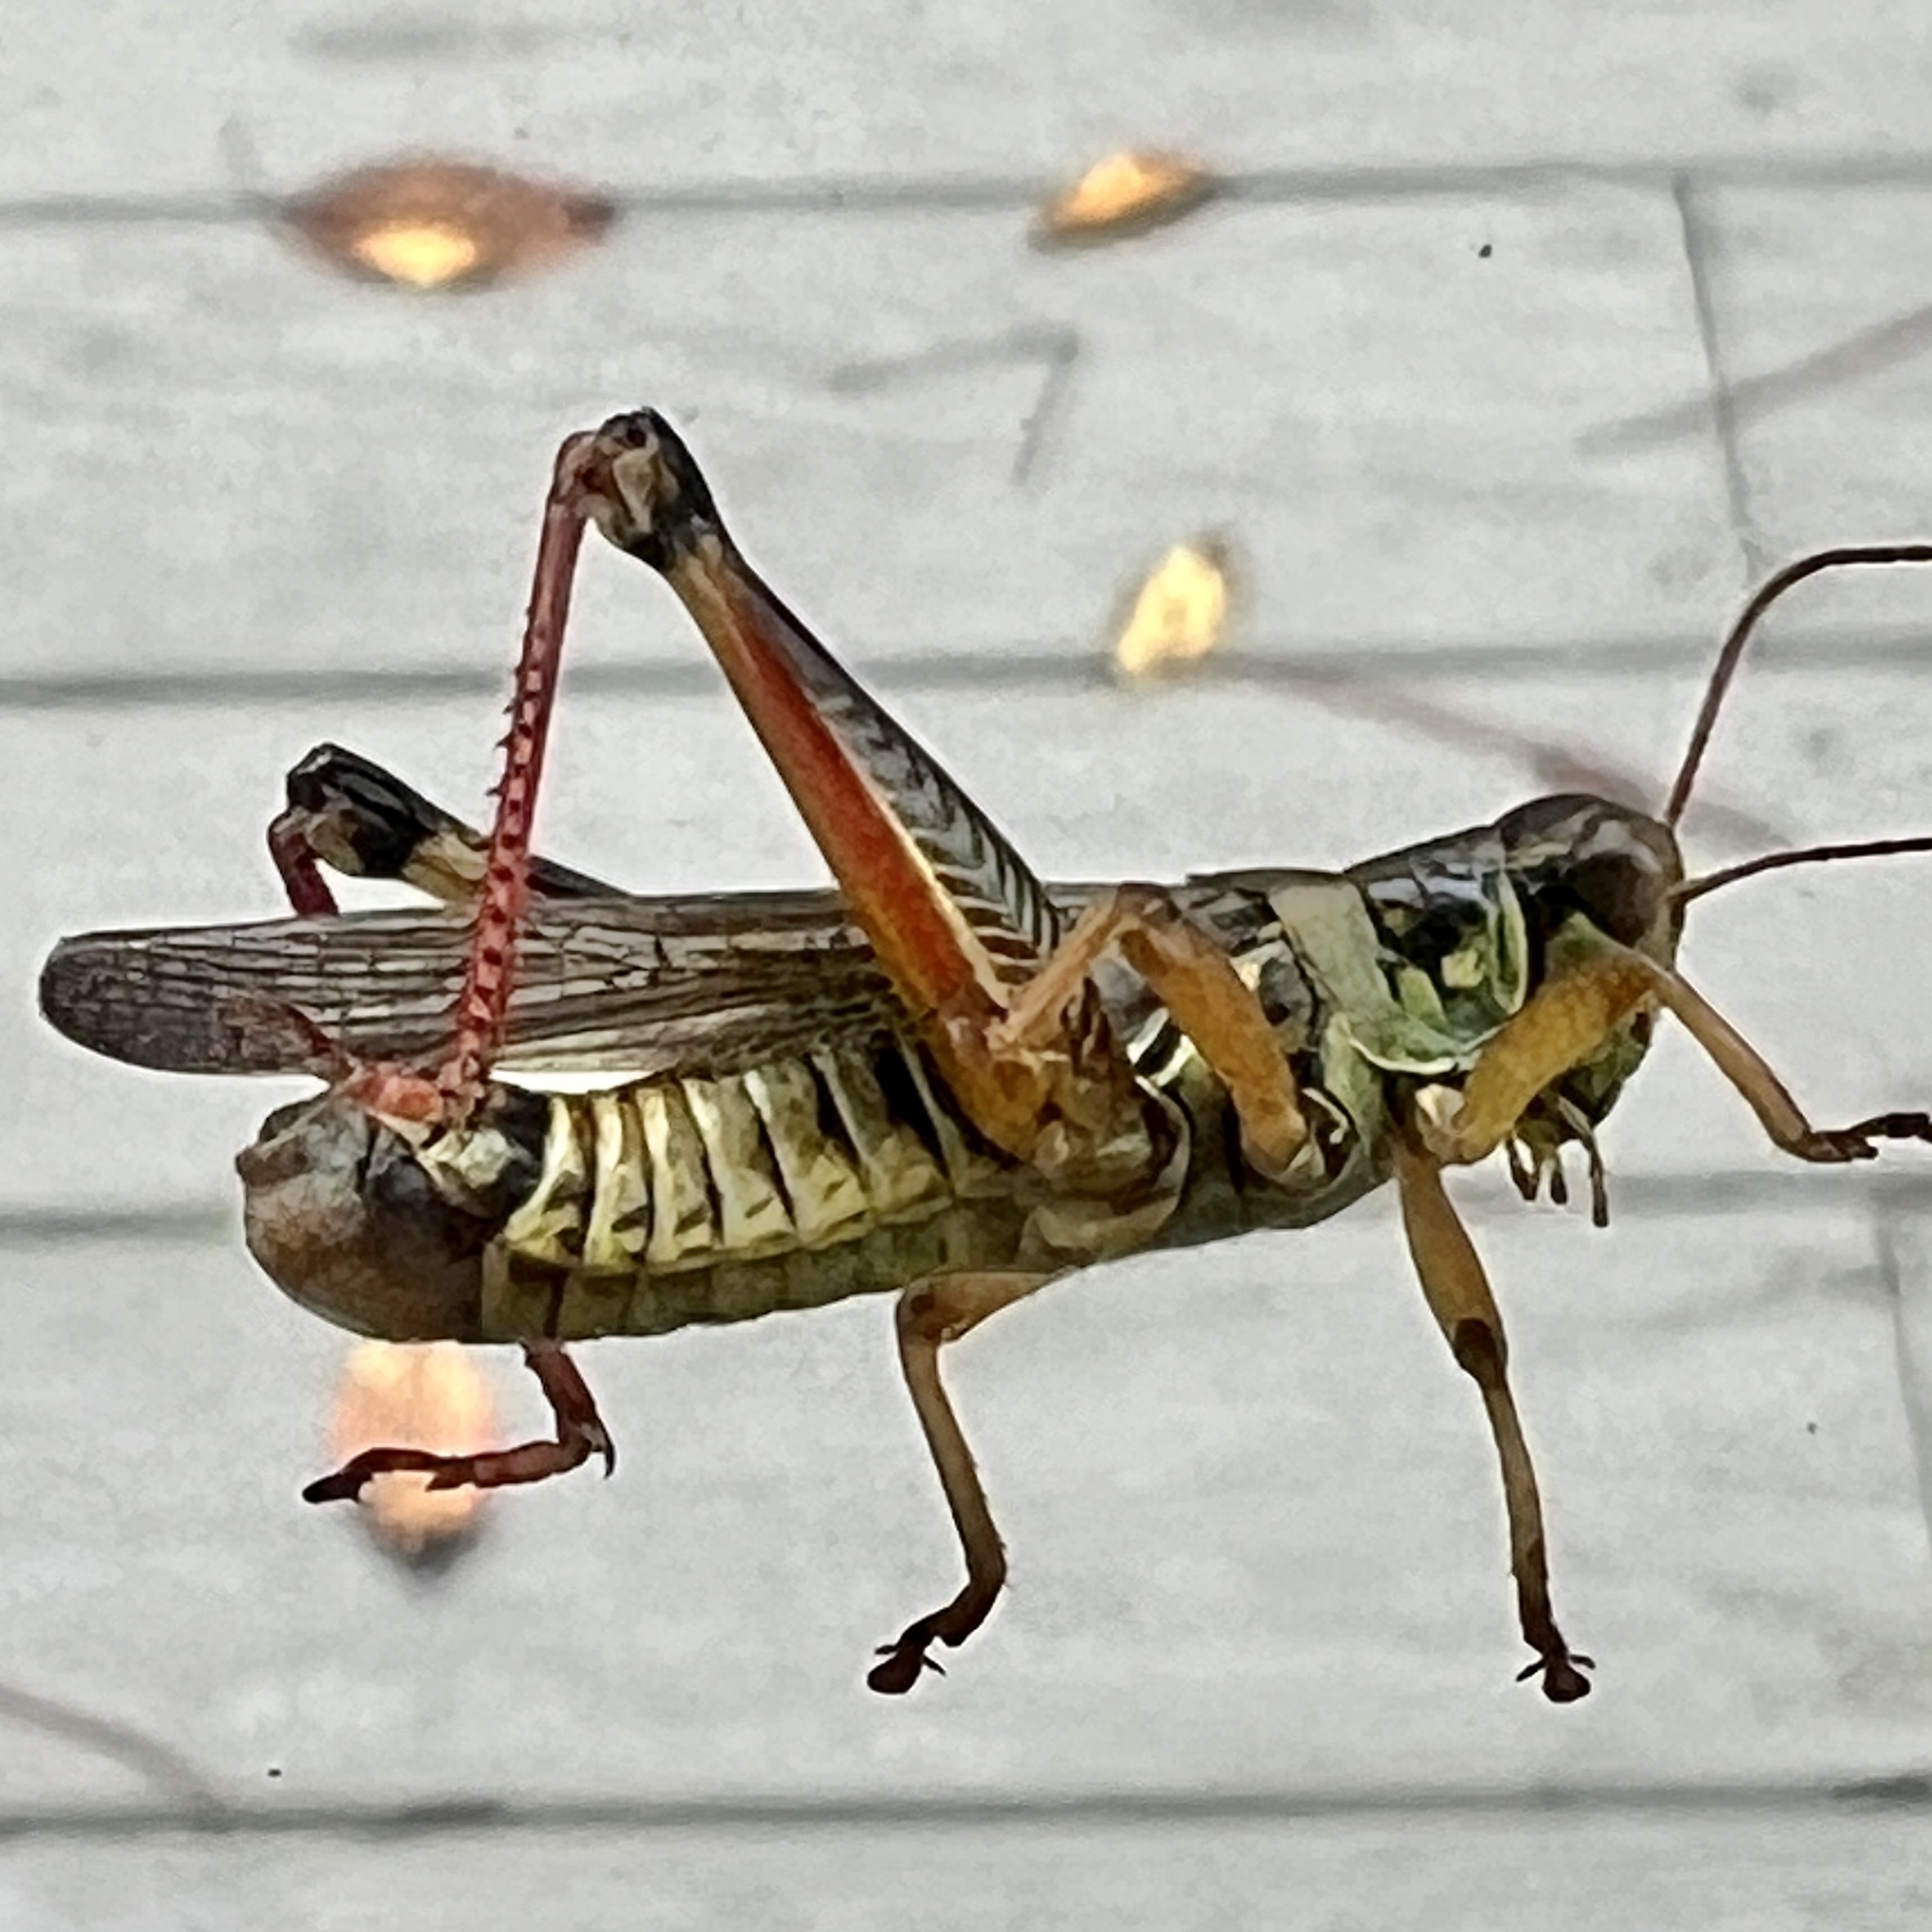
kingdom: Animalia
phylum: Arthropoda
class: Insecta
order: Orthoptera
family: Acrididae
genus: Melanoplus
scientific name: Melanoplus femurrubrum
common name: Red-legged grasshopper
